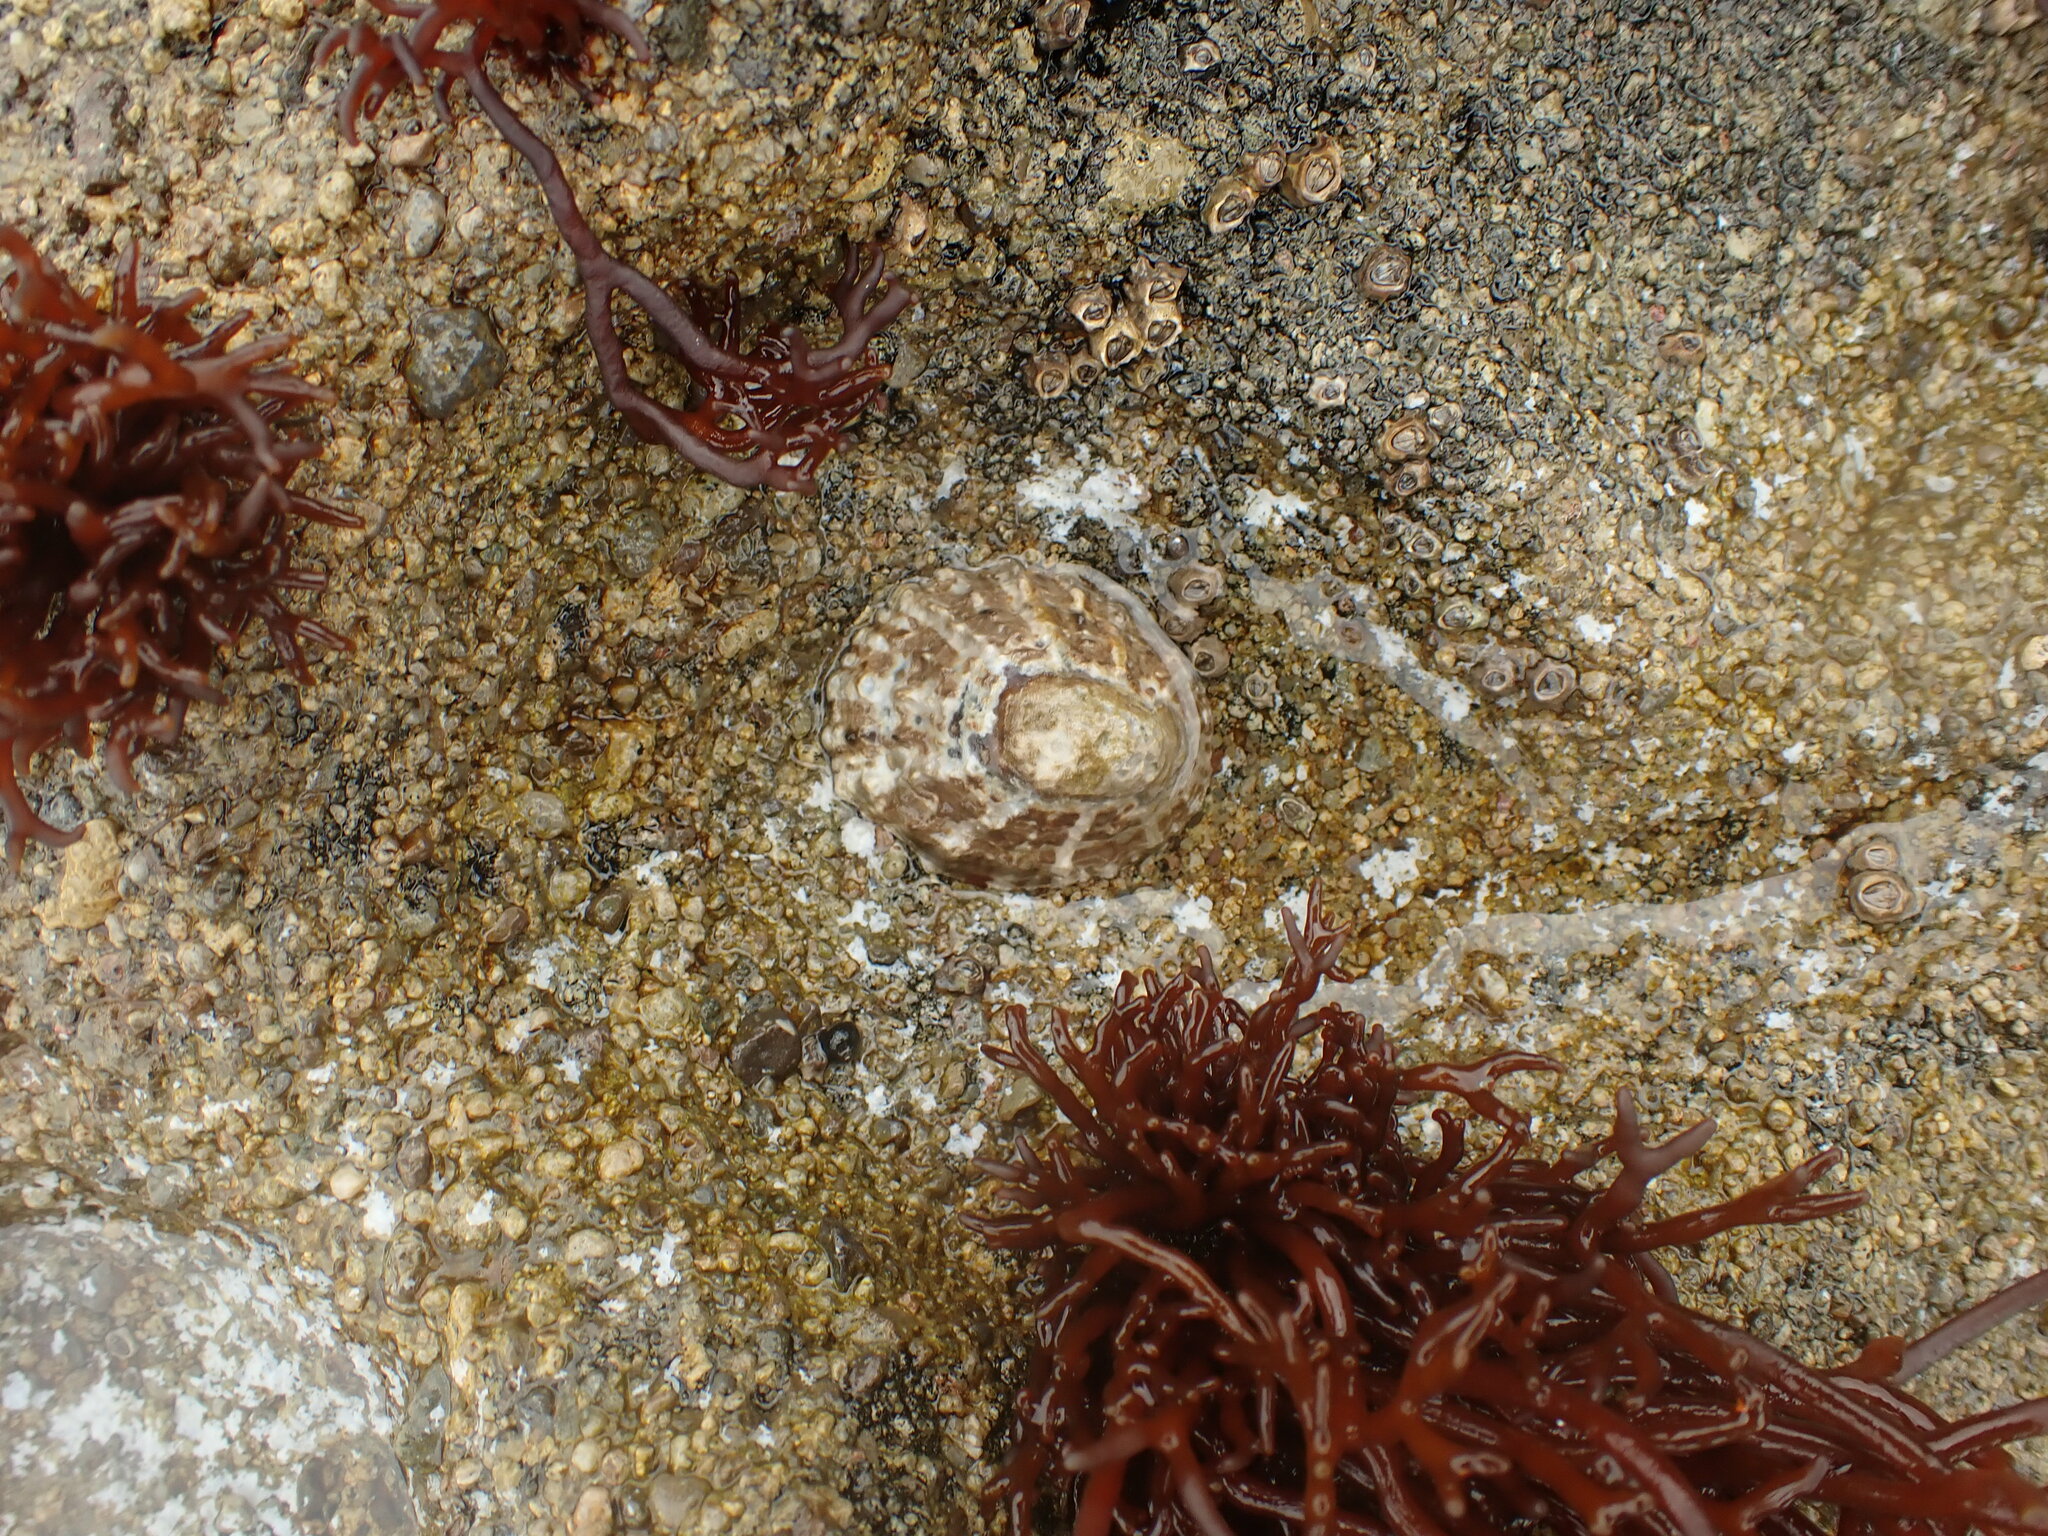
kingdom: Animalia
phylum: Mollusca
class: Gastropoda
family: Nacellidae
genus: Cellana
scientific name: Cellana ornata
